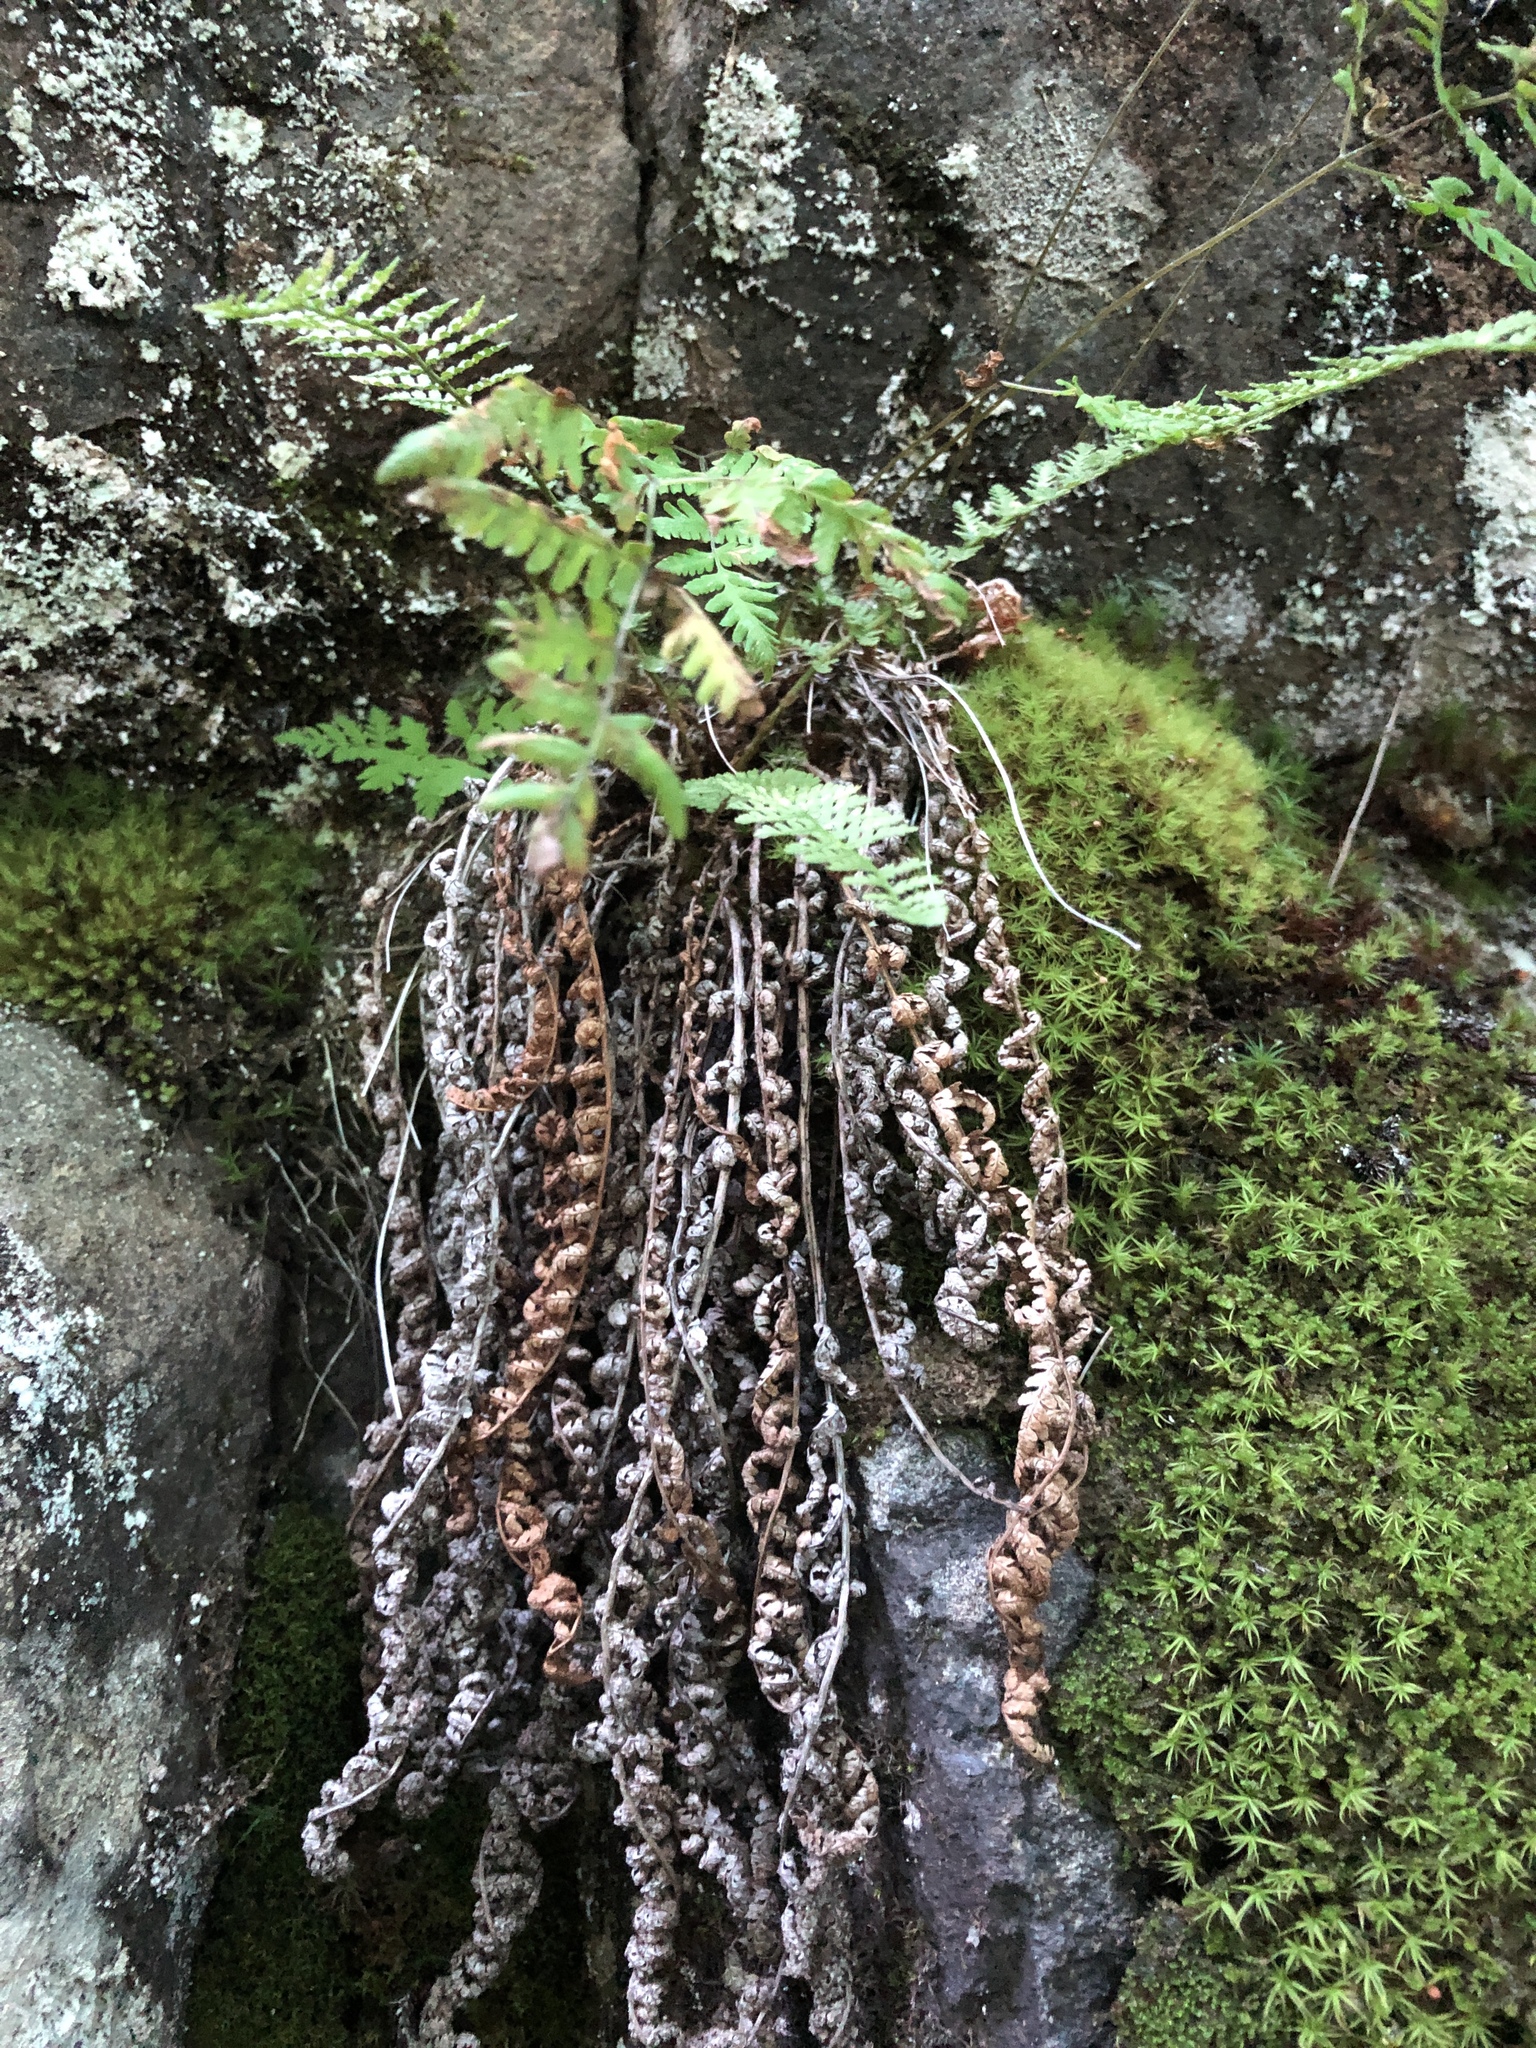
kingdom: Plantae
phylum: Tracheophyta
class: Polypodiopsida
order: Polypodiales
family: Dryopteridaceae
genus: Dryopteris
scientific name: Dryopteris fragrans
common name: Fragrant wood fern
